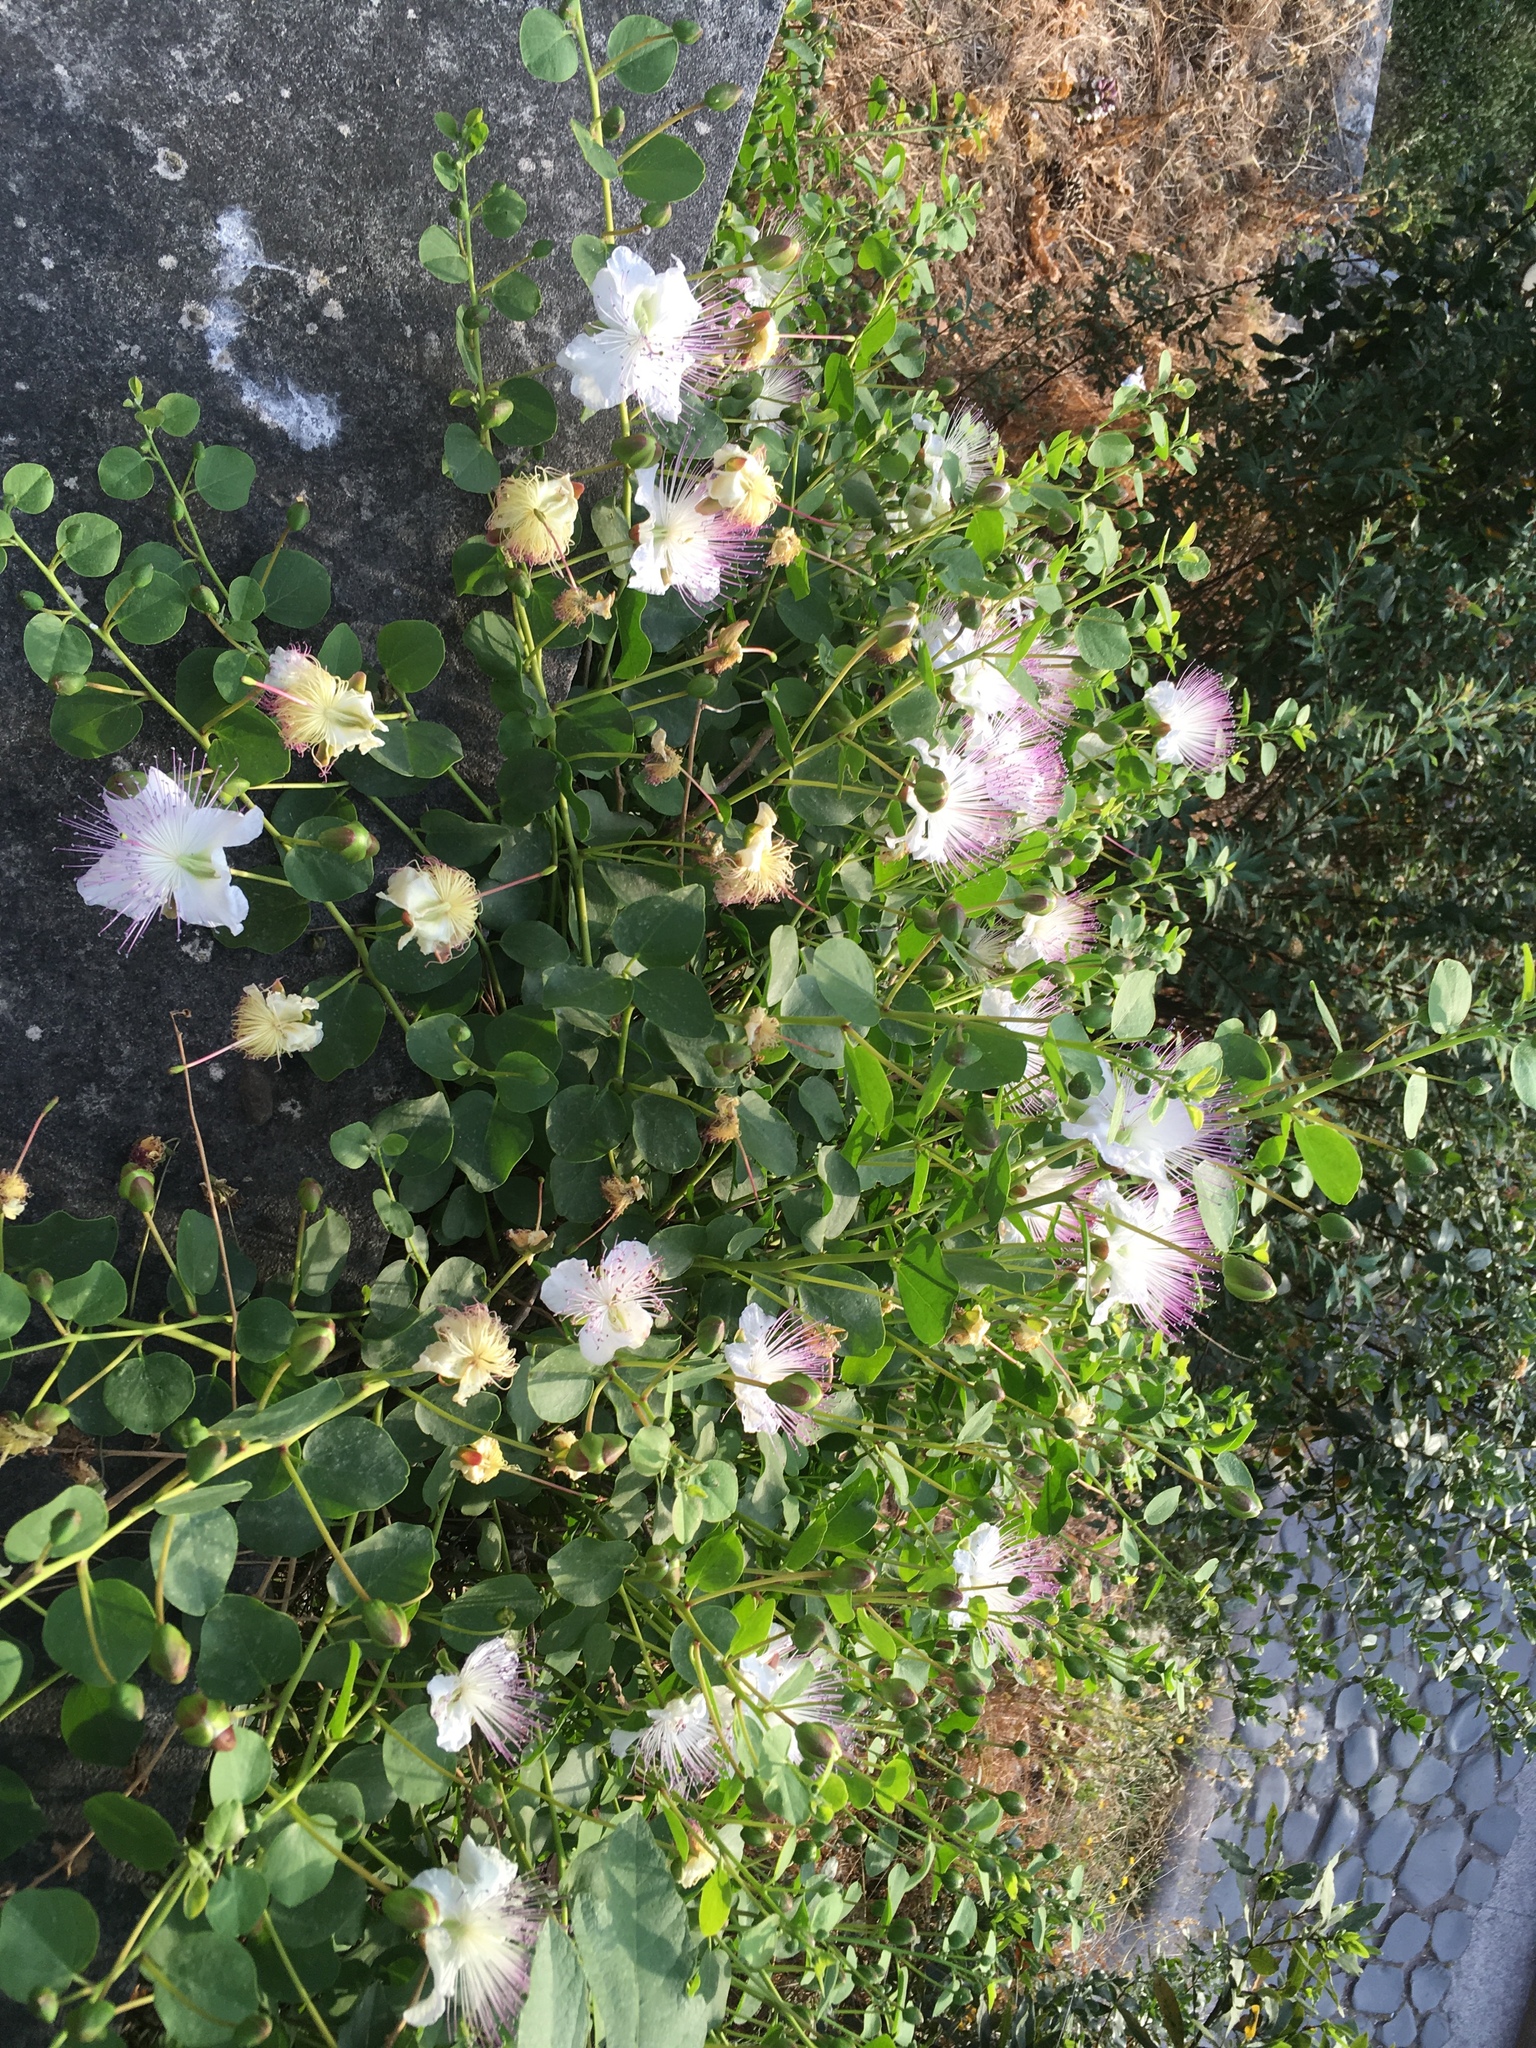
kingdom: Plantae
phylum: Tracheophyta
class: Magnoliopsida
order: Brassicales
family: Capparaceae
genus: Capparis
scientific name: Capparis spinosa
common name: Caper
